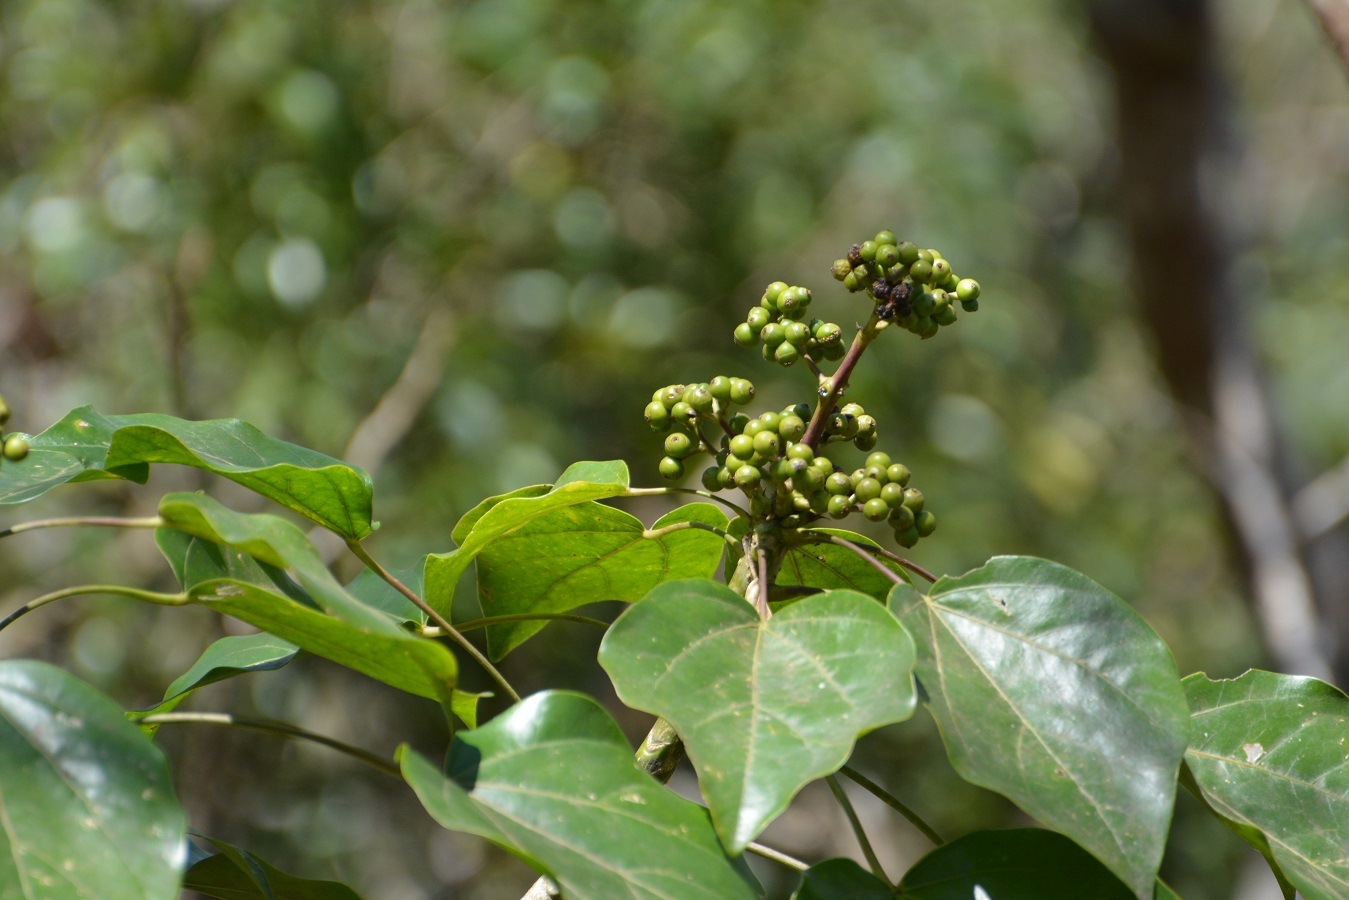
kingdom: Plantae
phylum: Tracheophyta
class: Magnoliopsida
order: Apiales
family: Araliaceae
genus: Oreopanax
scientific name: Oreopanax platyphyllus
